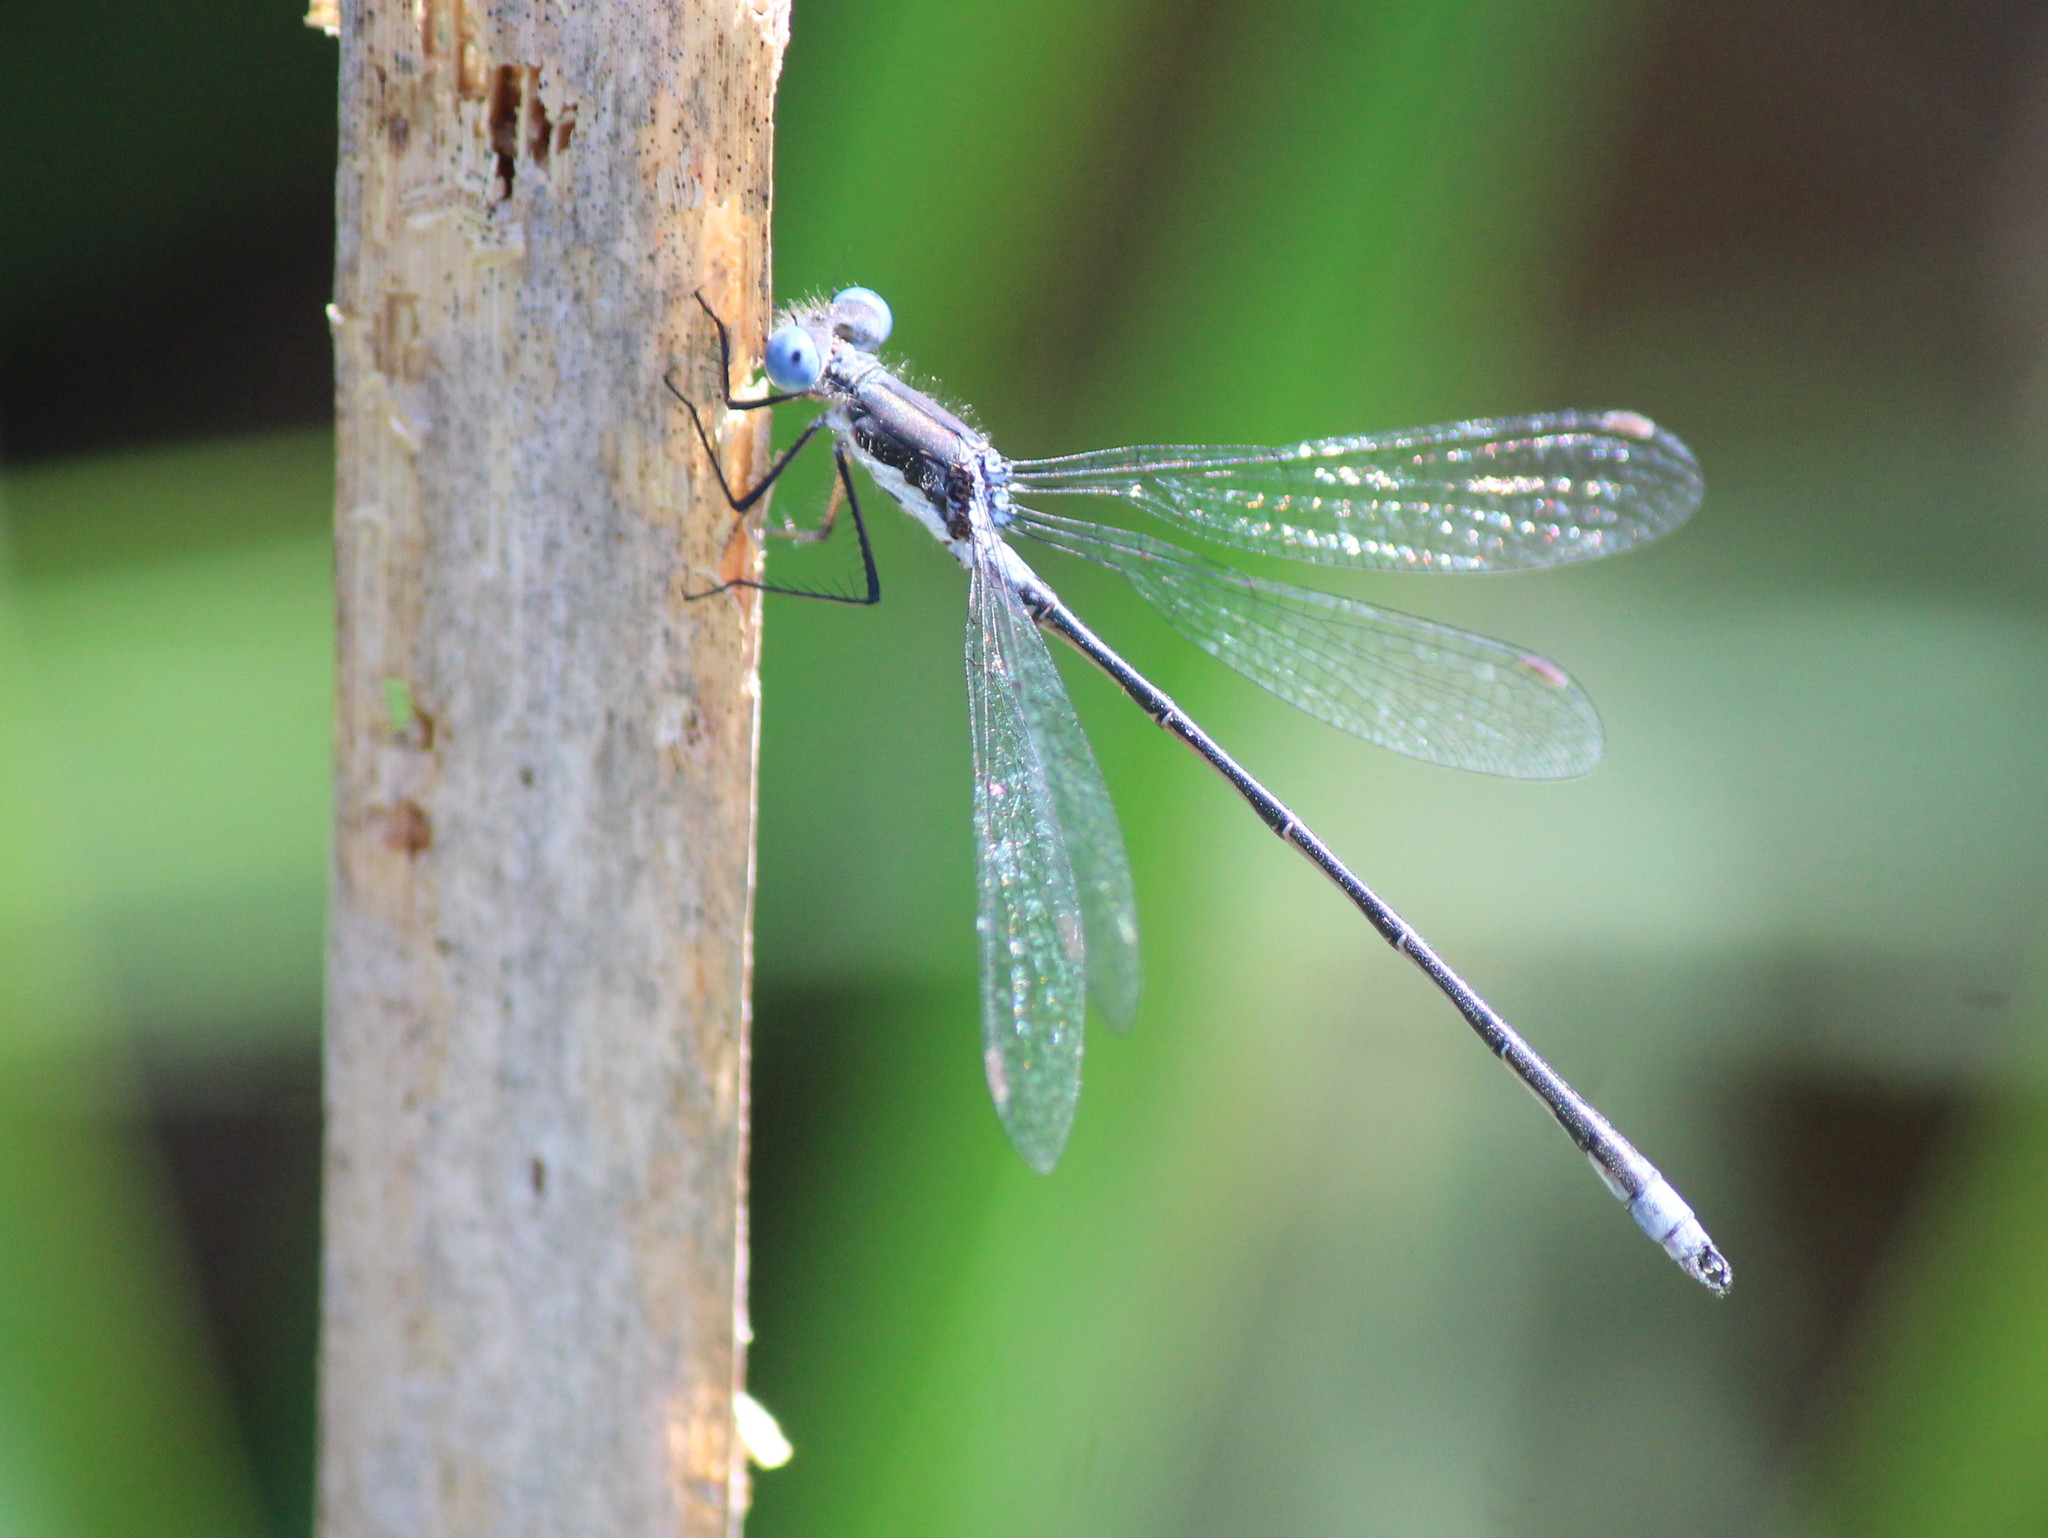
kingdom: Animalia
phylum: Arthropoda
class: Insecta
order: Odonata
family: Lestidae
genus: Lestes
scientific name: Lestes congener
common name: Spotted spreadwing
